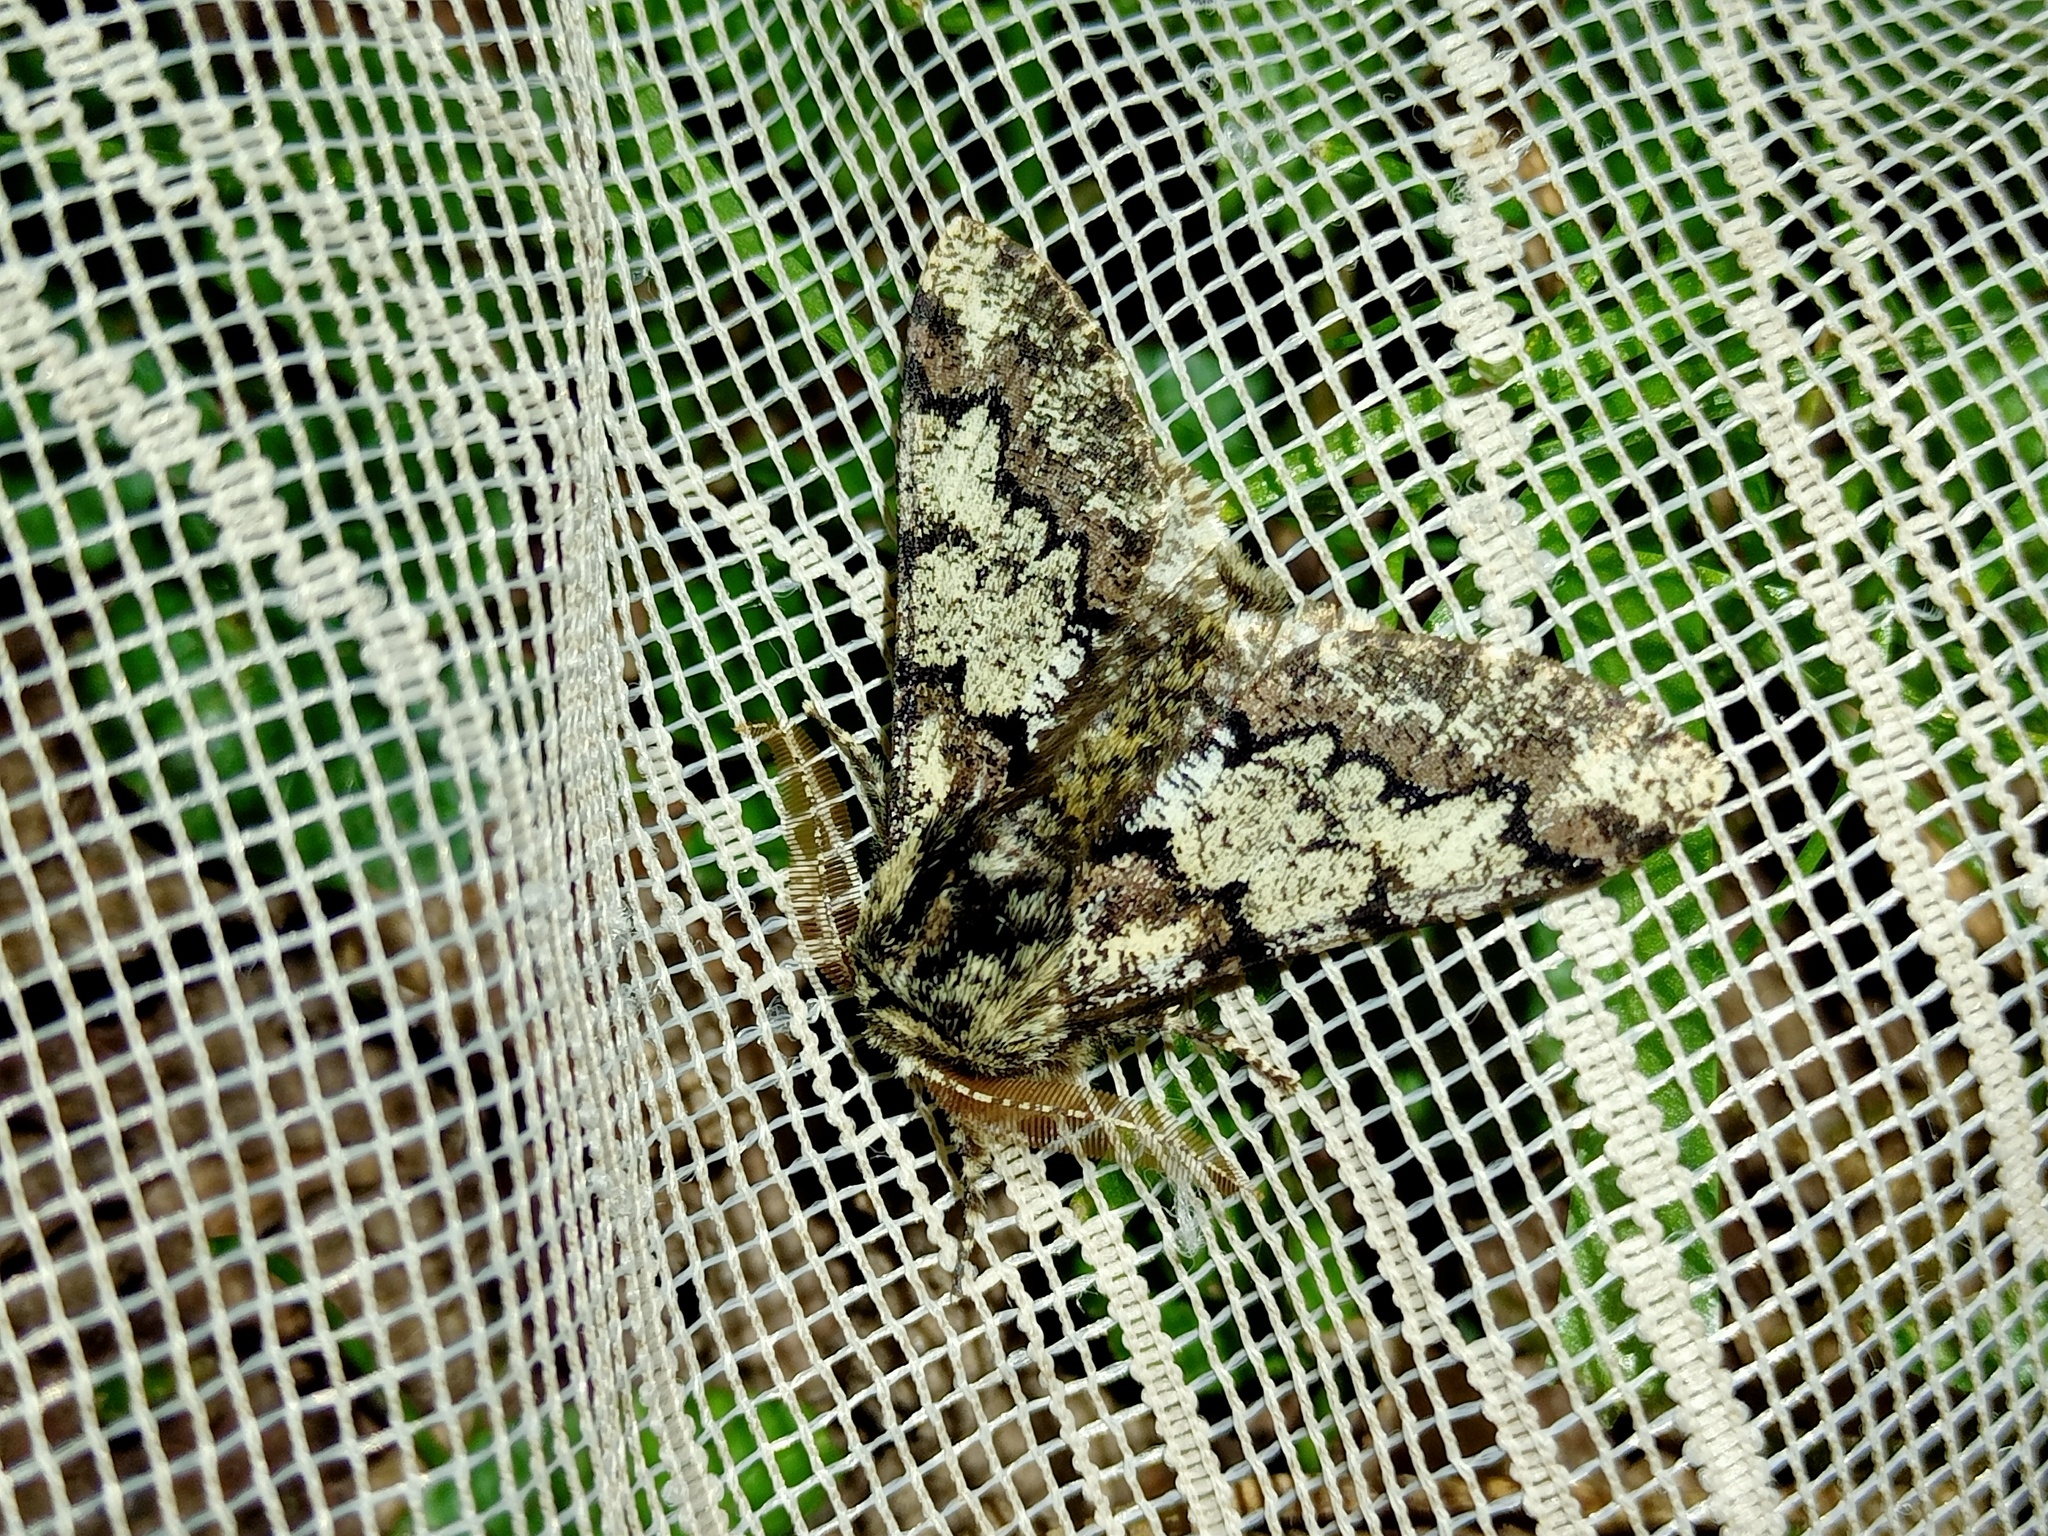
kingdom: Animalia
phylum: Arthropoda
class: Insecta
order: Lepidoptera
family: Geometridae
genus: Biston
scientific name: Biston strataria
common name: Oak beauty
